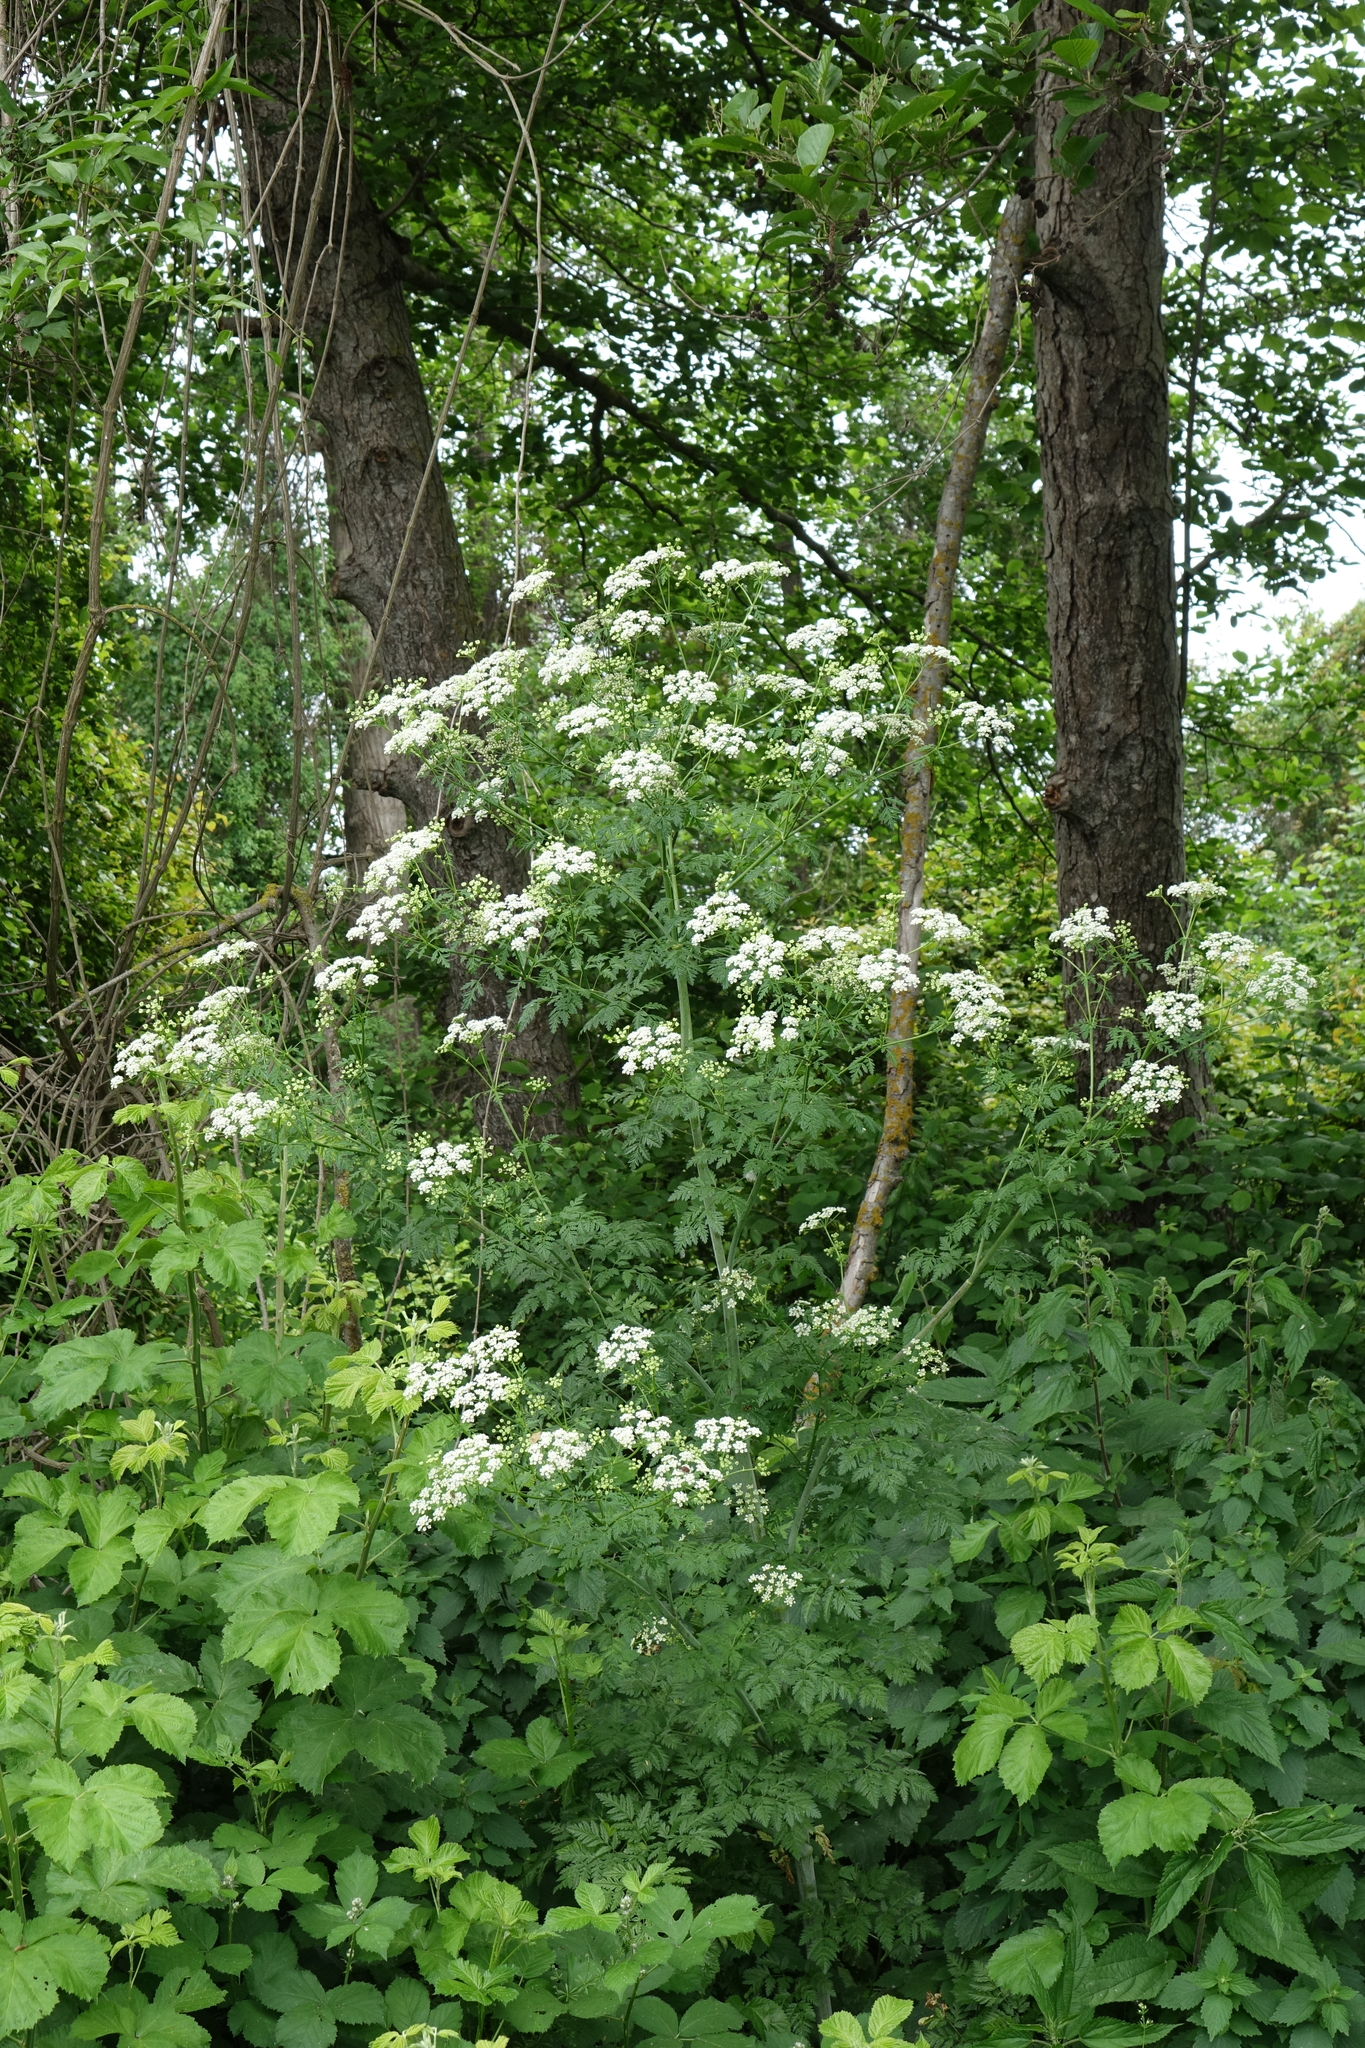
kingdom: Plantae
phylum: Tracheophyta
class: Magnoliopsida
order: Apiales
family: Apiaceae
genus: Conium
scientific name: Conium maculatum
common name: Hemlock
